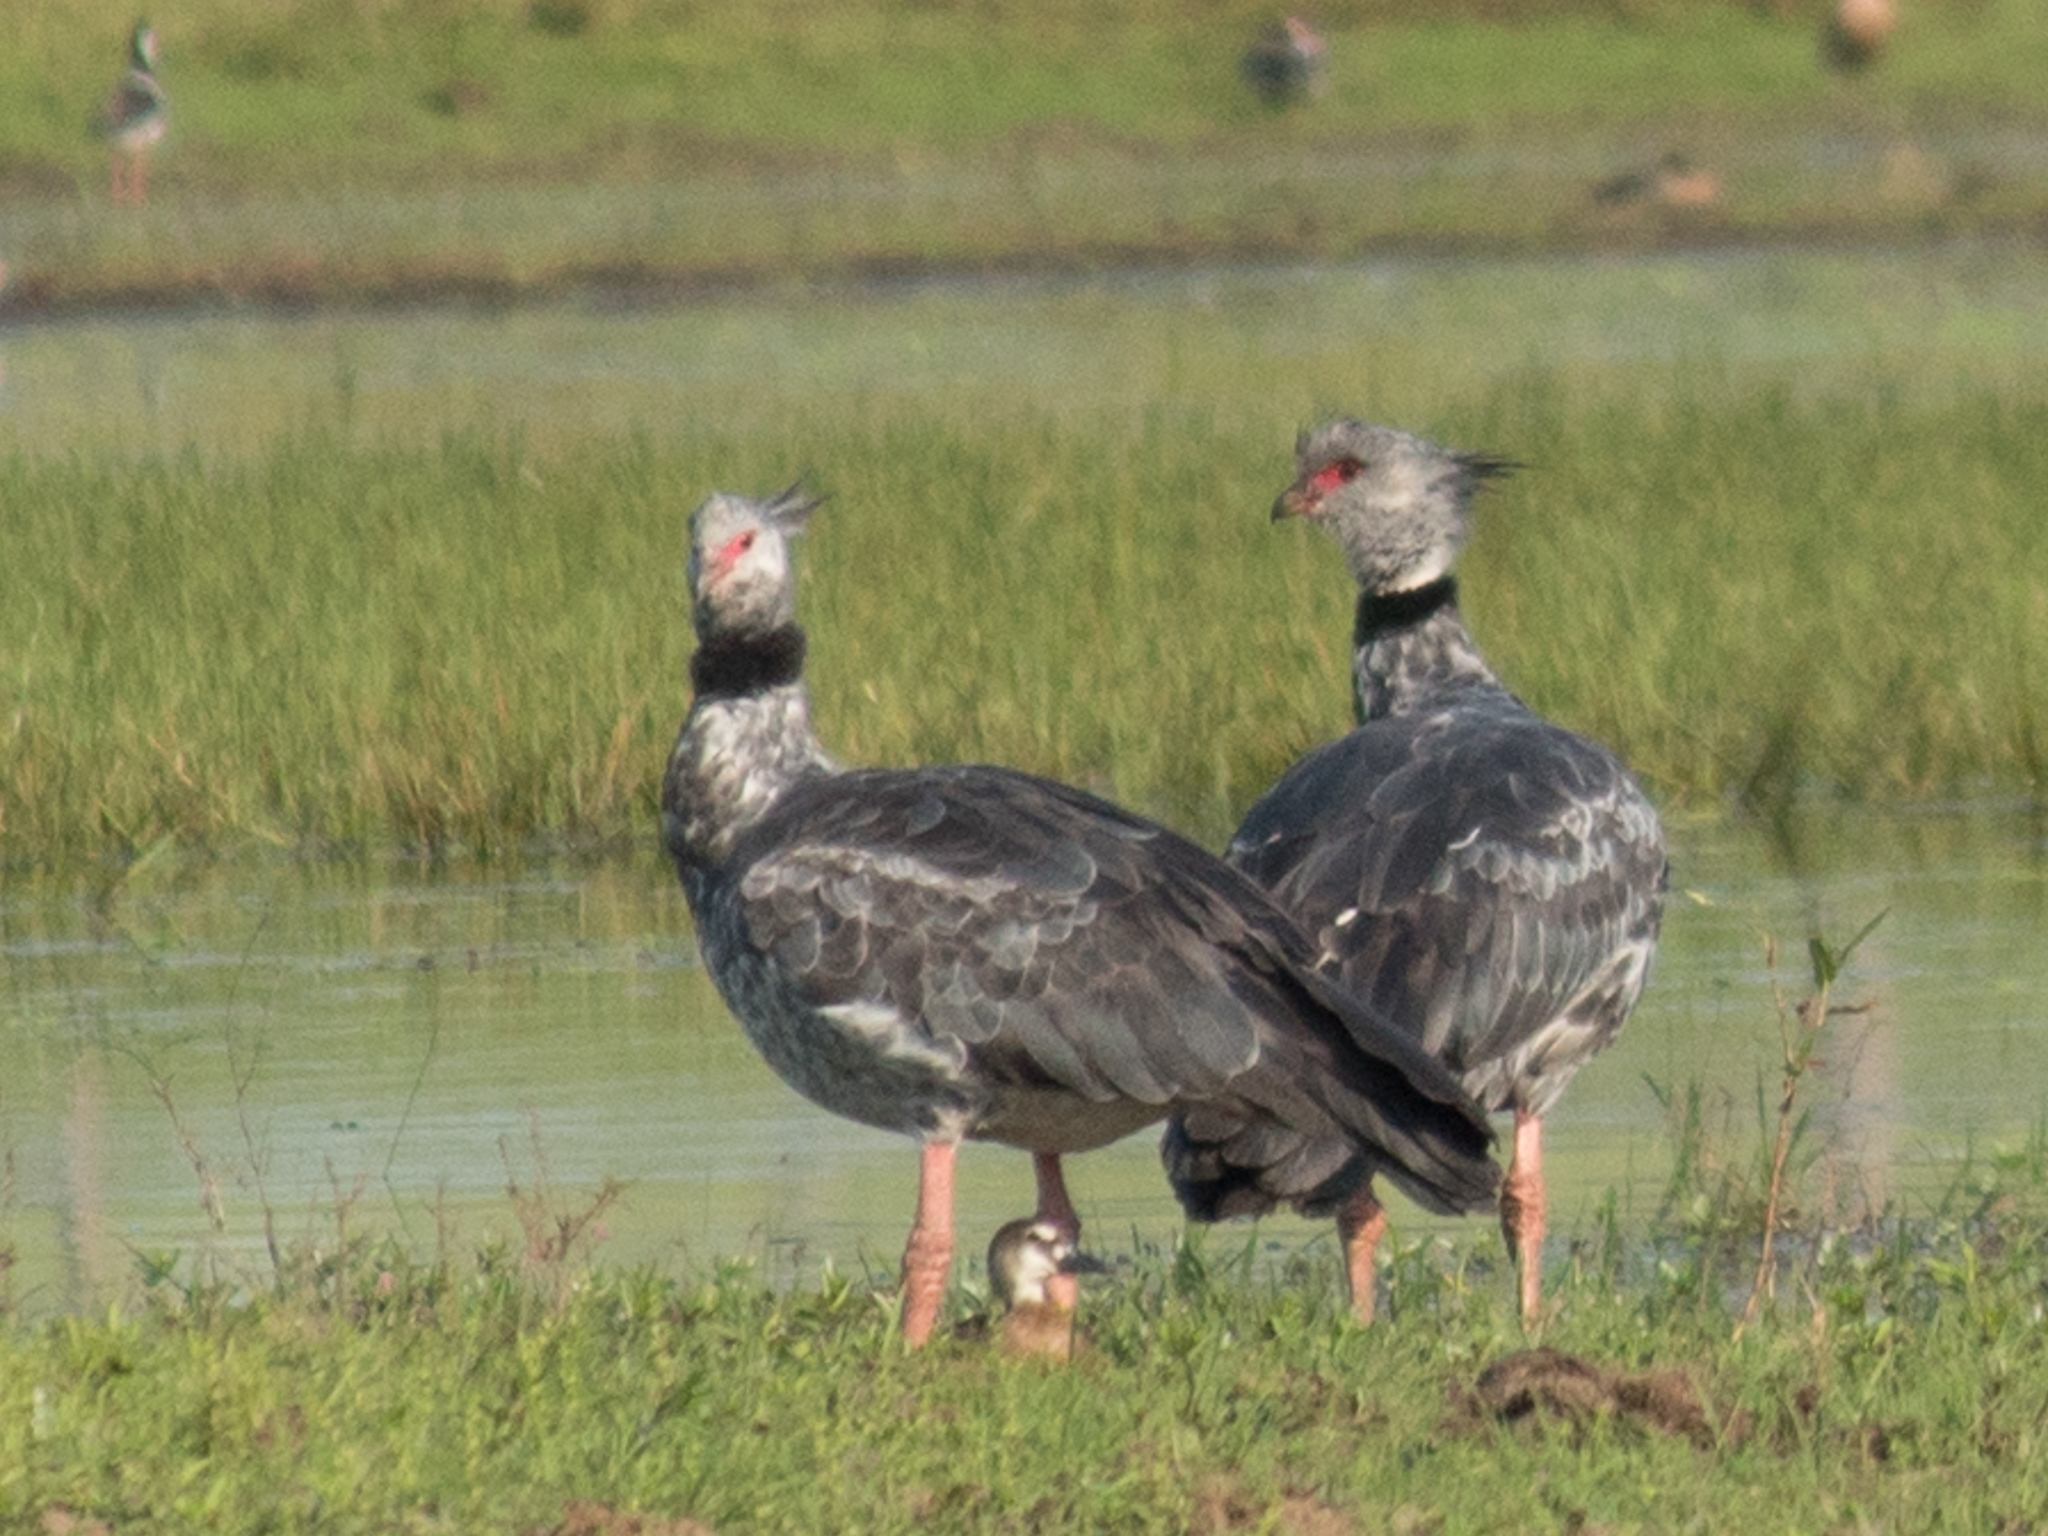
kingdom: Animalia
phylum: Chordata
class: Aves
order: Anseriformes
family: Anhimidae
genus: Chauna
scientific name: Chauna torquata
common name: Southern screamer
